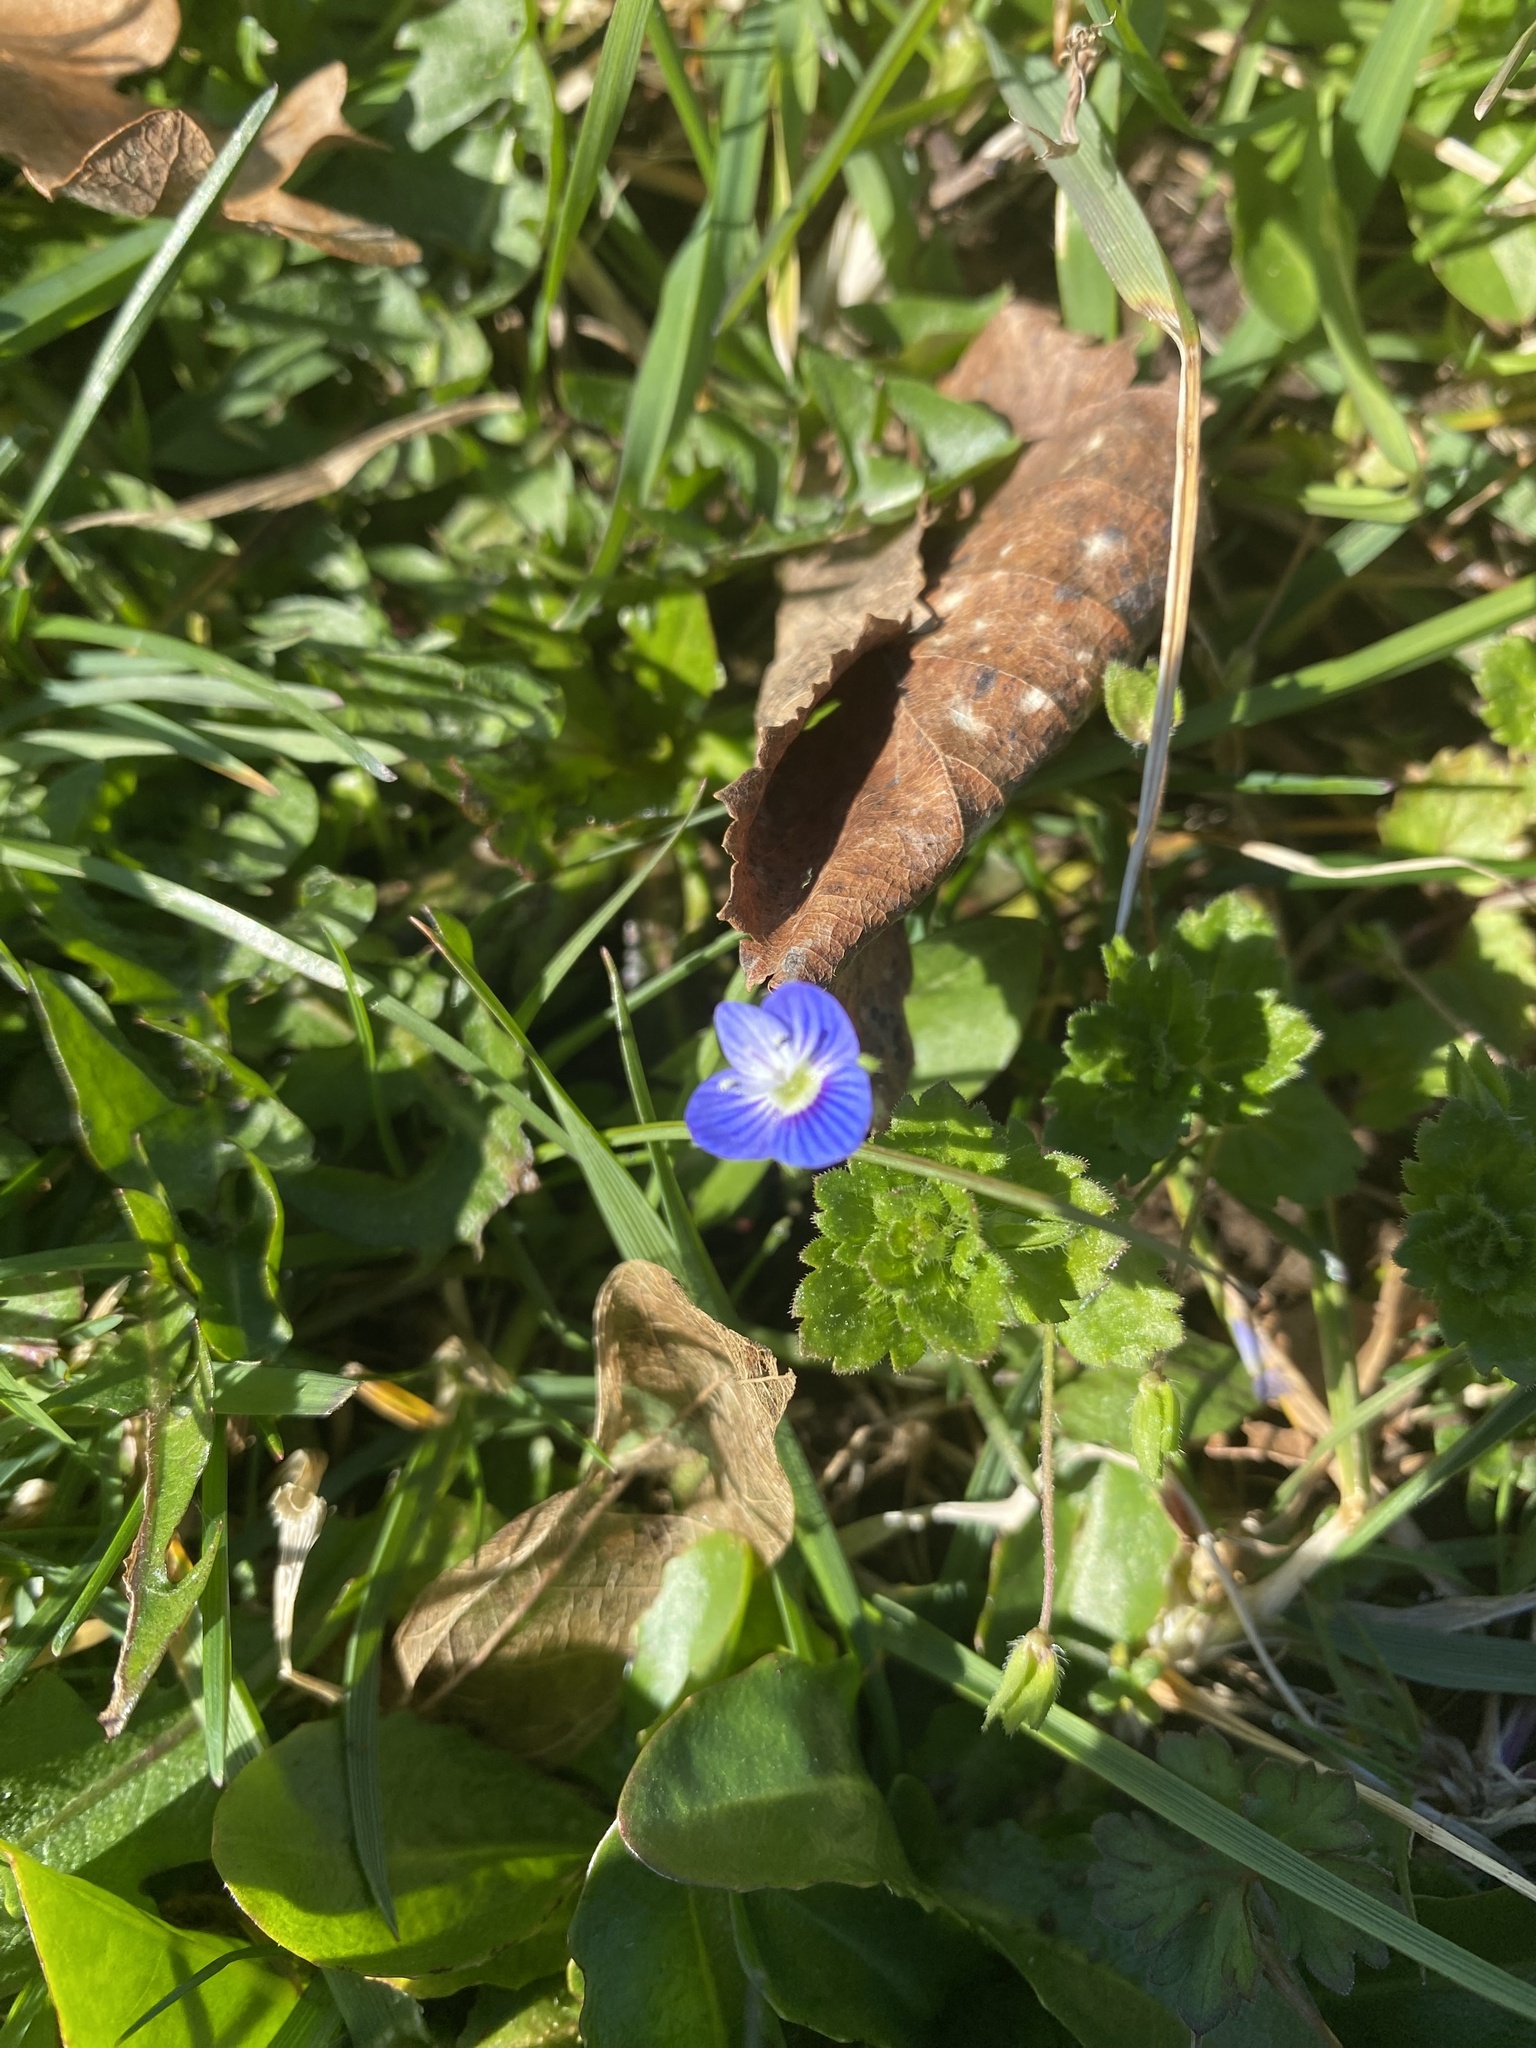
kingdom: Plantae
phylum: Tracheophyta
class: Magnoliopsida
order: Lamiales
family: Plantaginaceae
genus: Veronica
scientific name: Veronica persica
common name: Common field-speedwell
